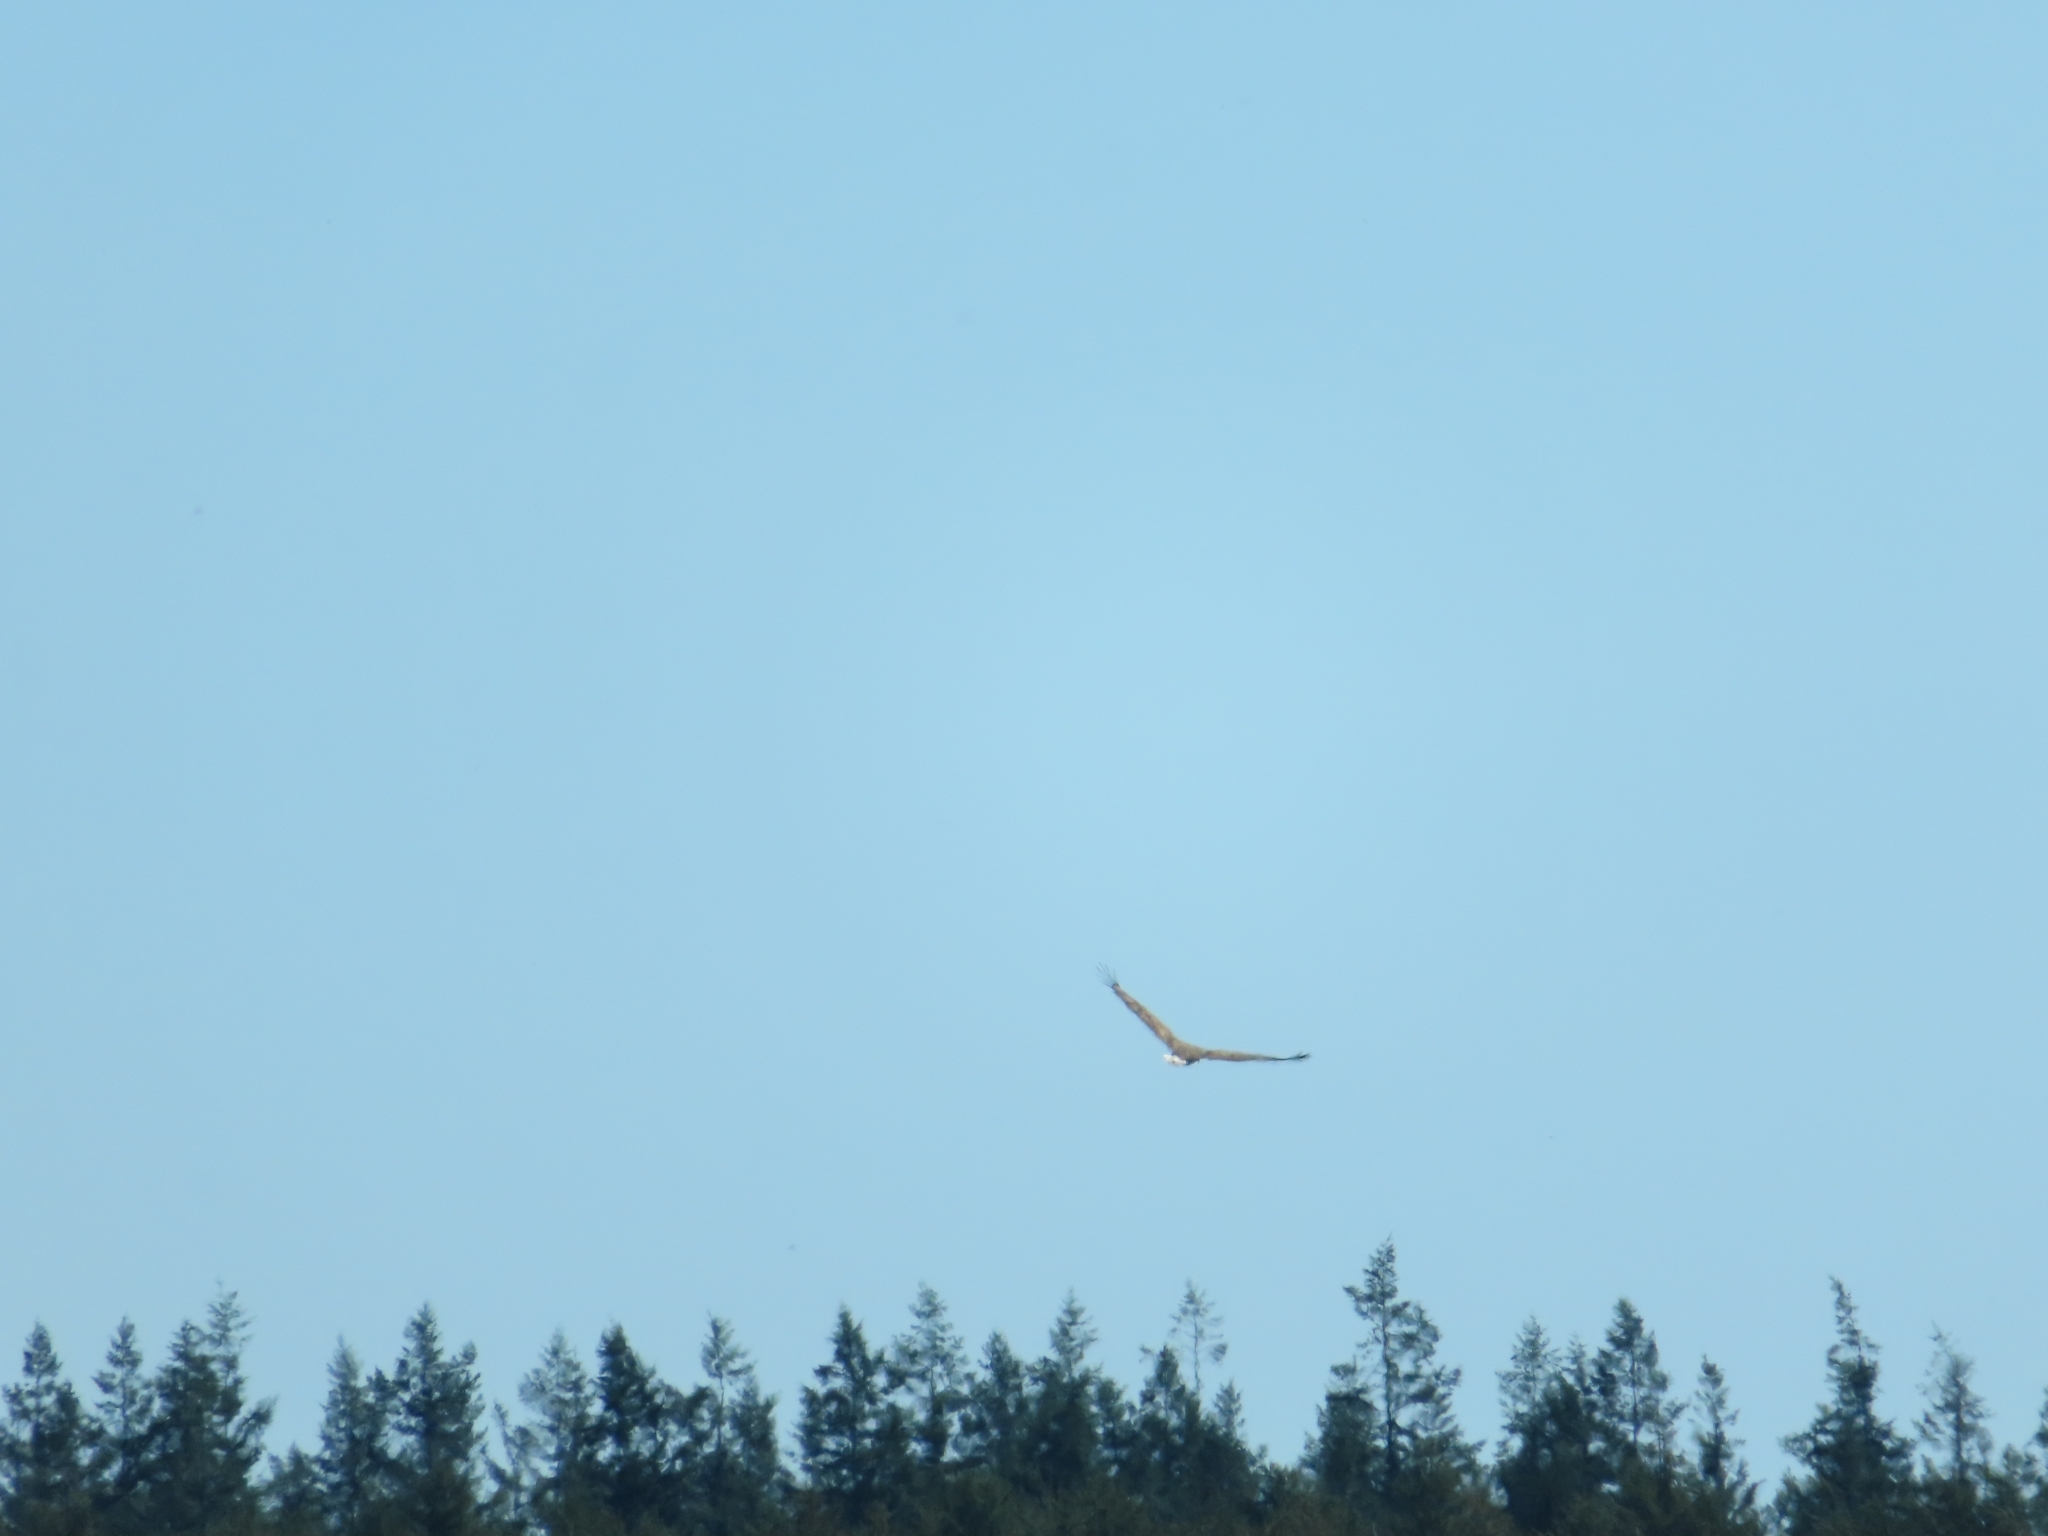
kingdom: Animalia
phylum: Chordata
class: Aves
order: Accipitriformes
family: Accipitridae
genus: Haliaeetus
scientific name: Haliaeetus albicilla
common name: White-tailed eagle
